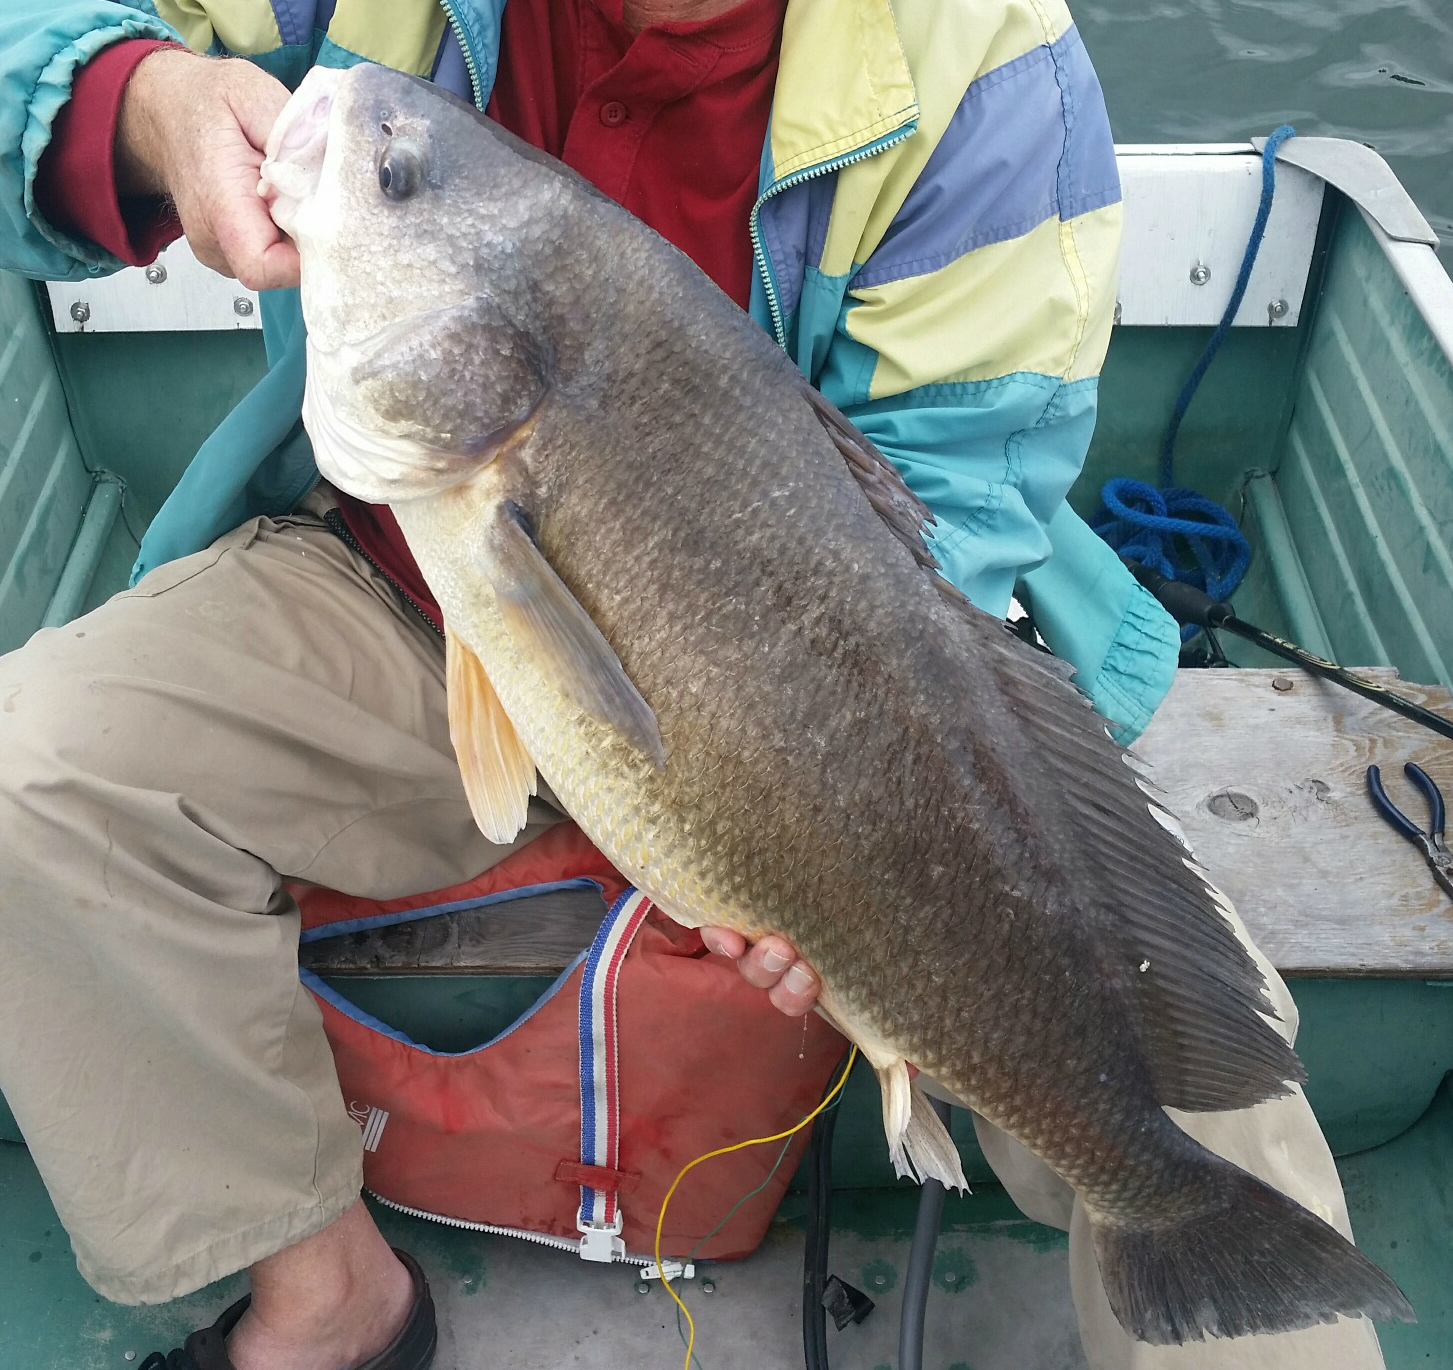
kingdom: Animalia
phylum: Chordata
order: Perciformes
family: Sciaenidae
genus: Aplodinotus
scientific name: Aplodinotus grunniens
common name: Freshwater drum
